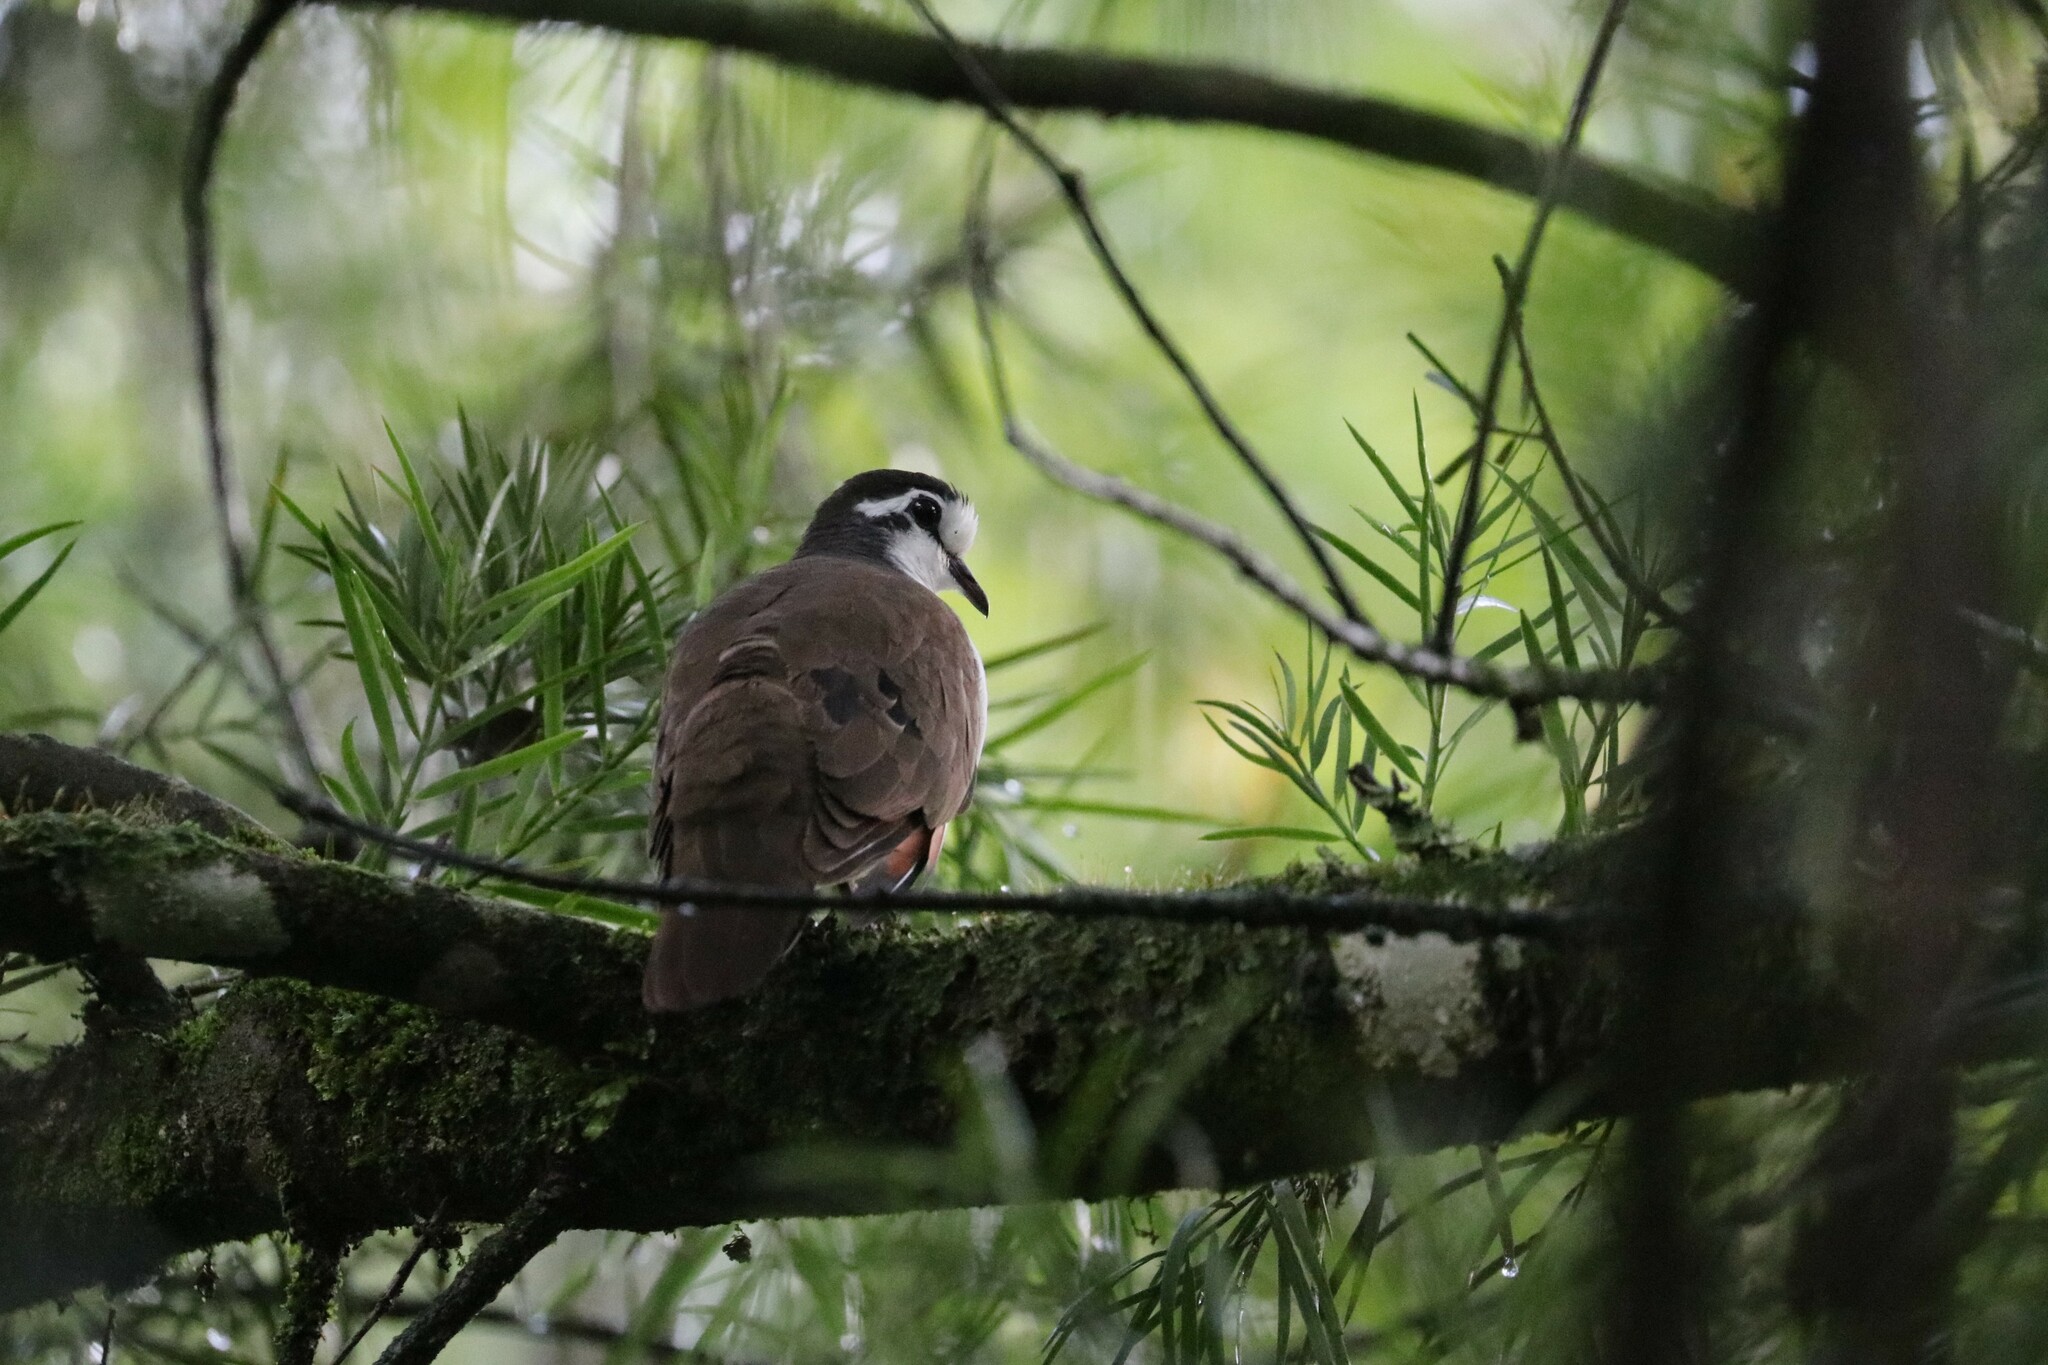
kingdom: Animalia
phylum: Chordata
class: Aves
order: Columbiformes
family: Columbidae
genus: Turtur
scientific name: Turtur tympanistria
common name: Tambourine dove
